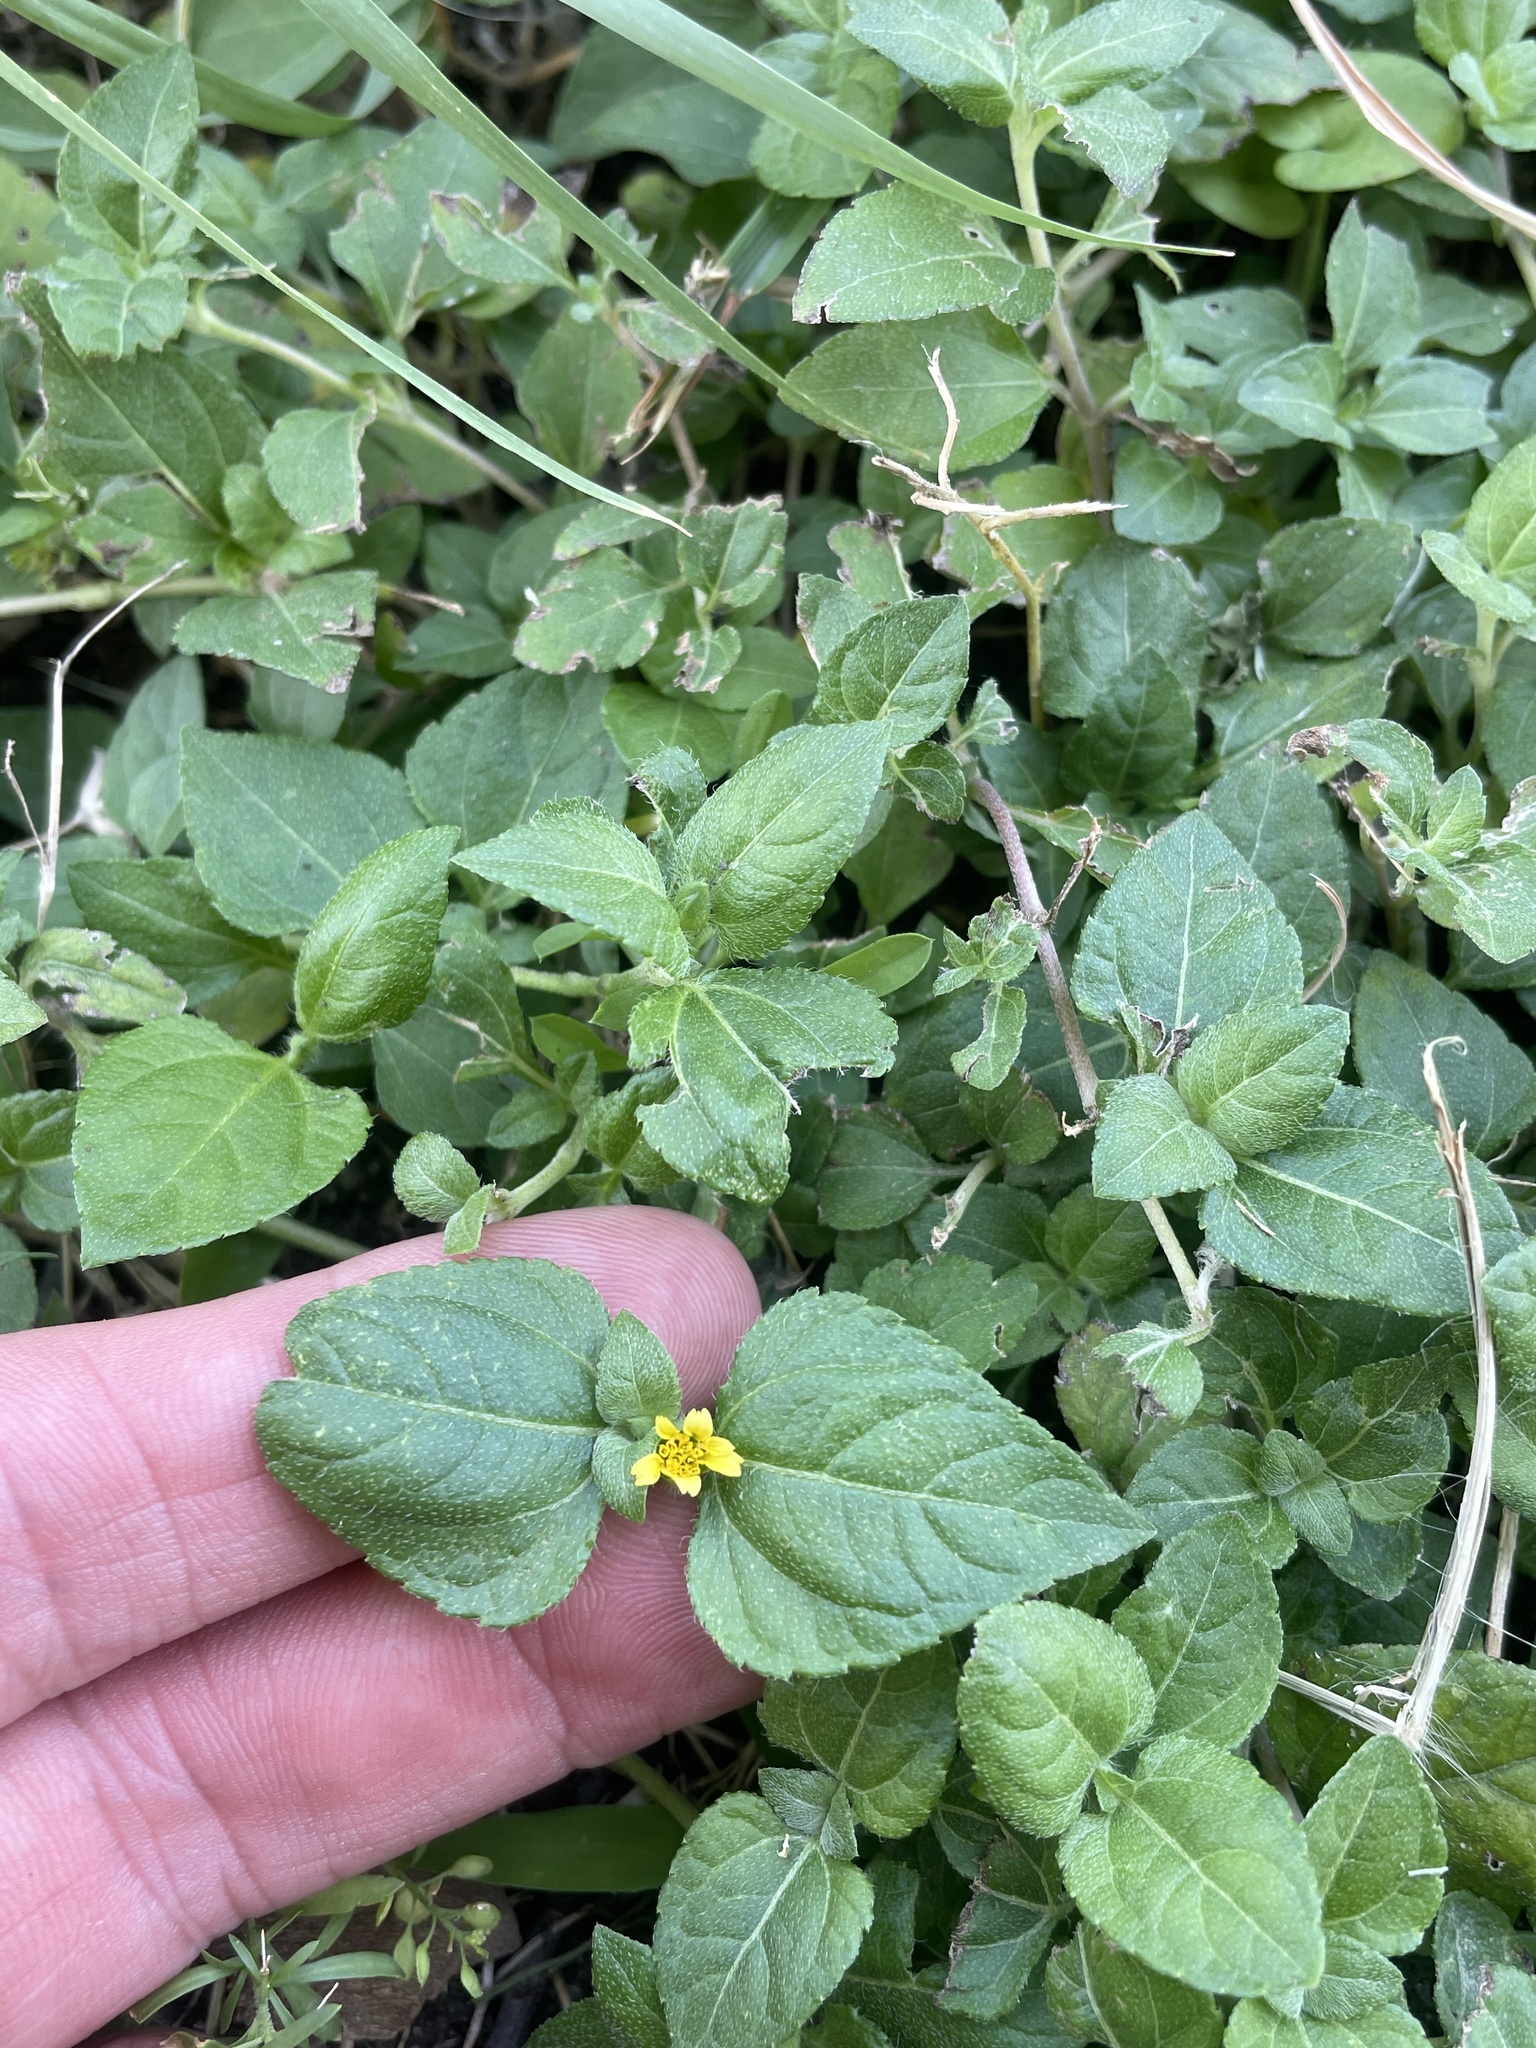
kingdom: Plantae
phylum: Tracheophyta
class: Magnoliopsida
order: Asterales
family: Asteraceae
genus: Calyptocarpus
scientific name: Calyptocarpus vialis
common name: Straggler daisy
